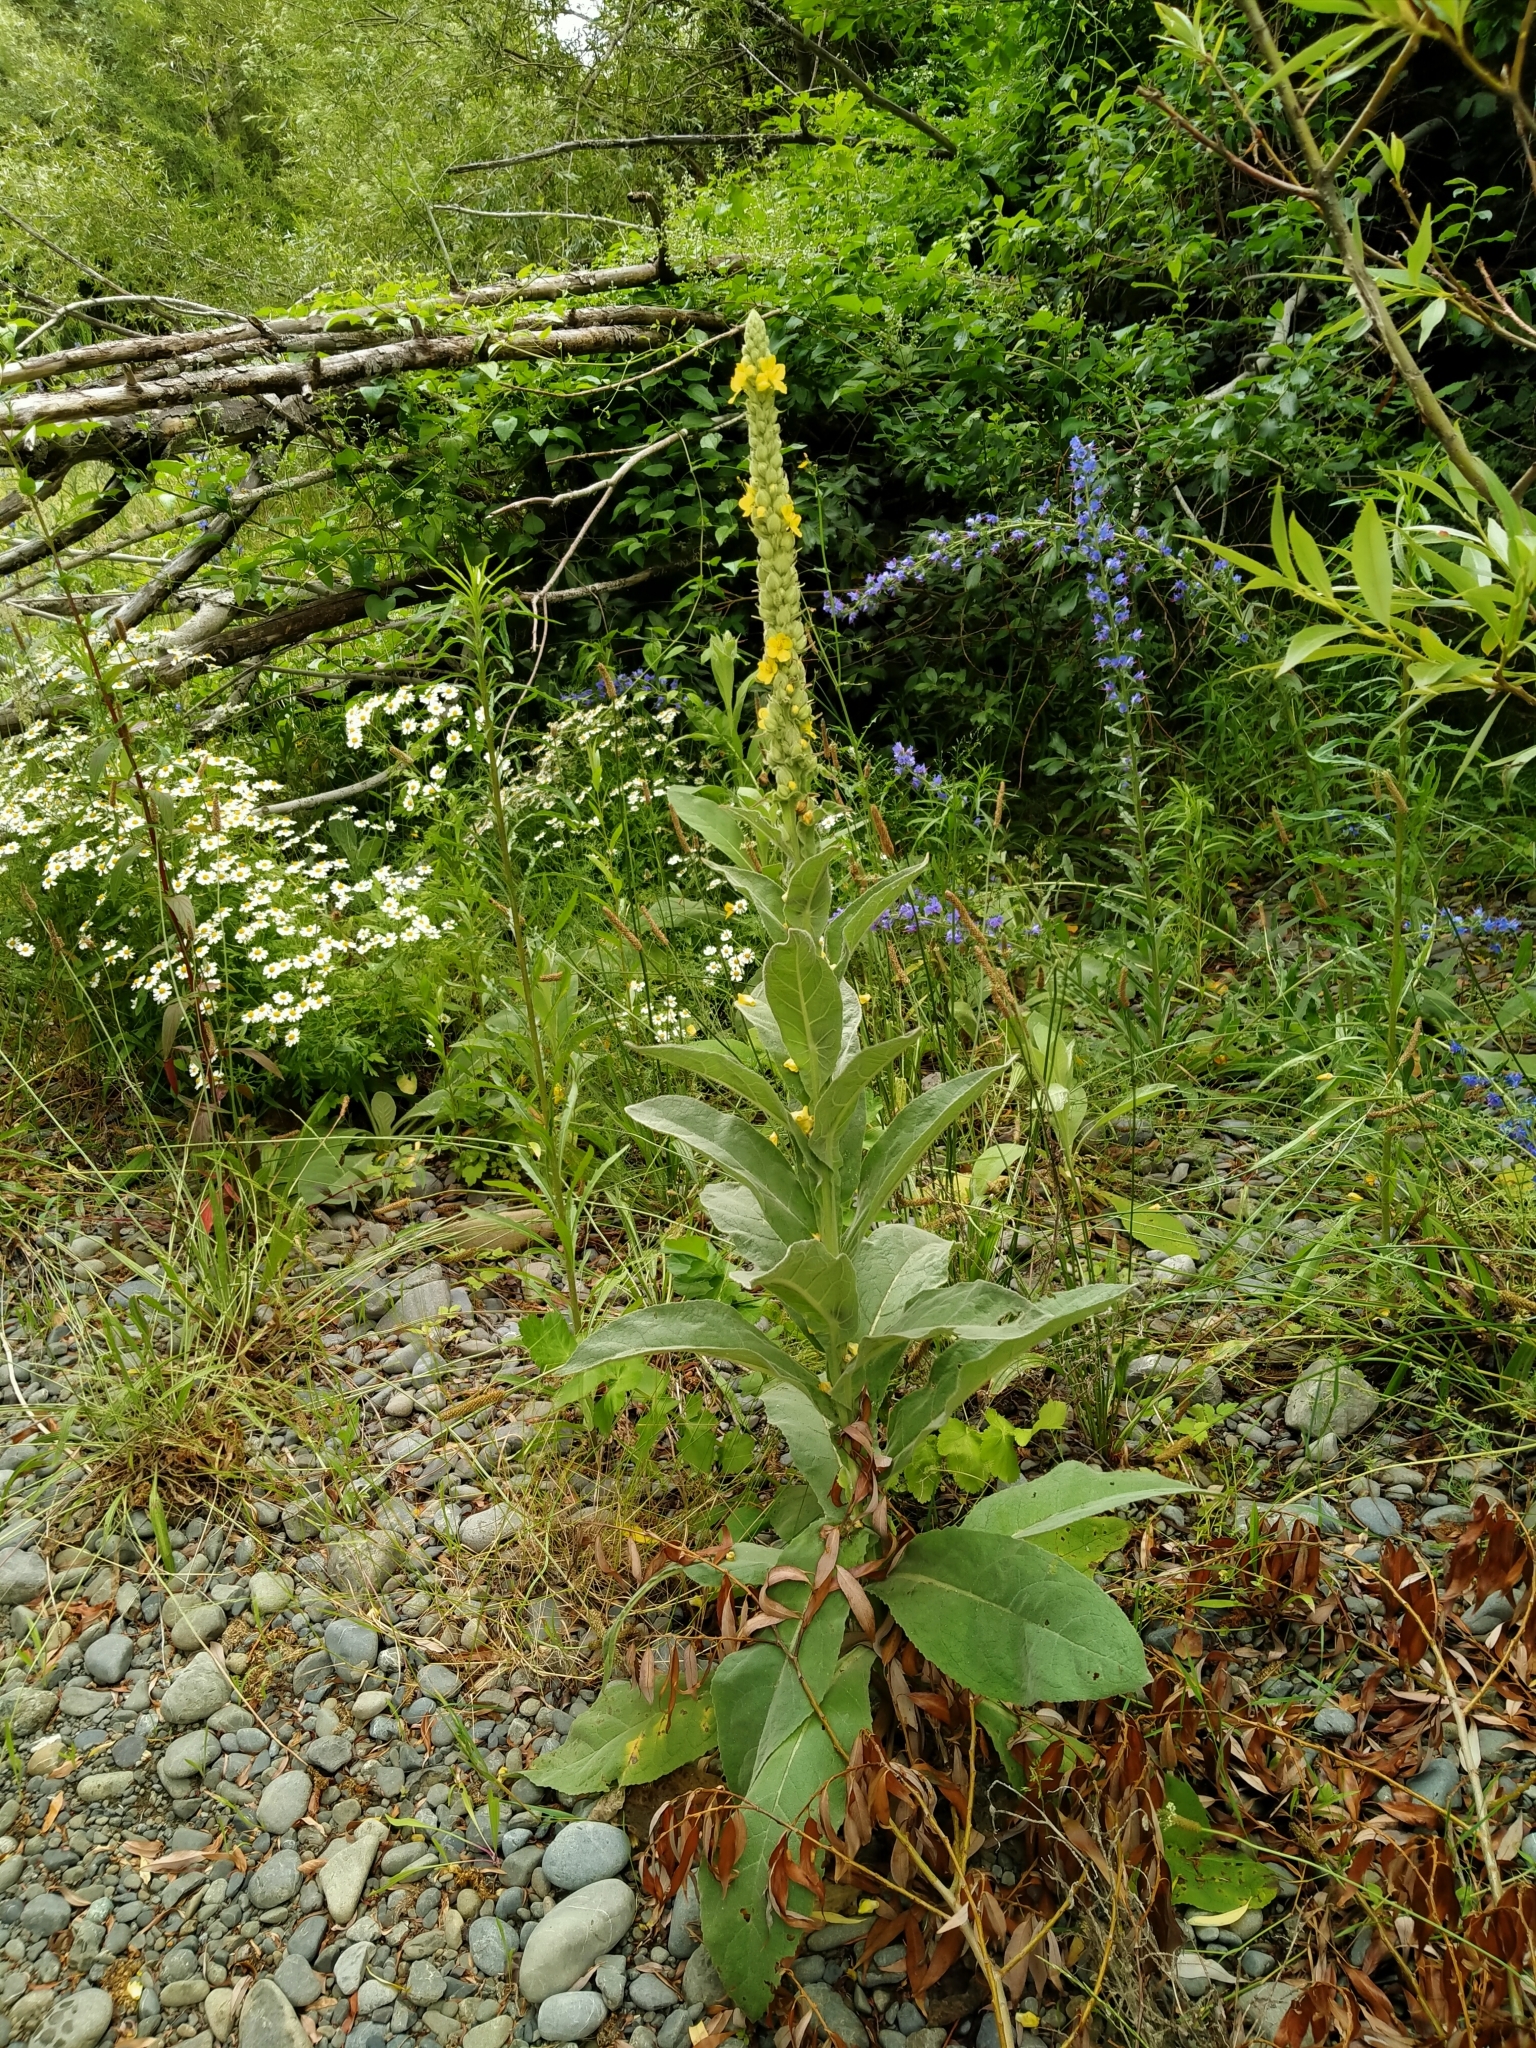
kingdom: Plantae
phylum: Tracheophyta
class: Magnoliopsida
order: Lamiales
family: Scrophulariaceae
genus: Verbascum
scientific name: Verbascum thapsus
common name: Common mullein
